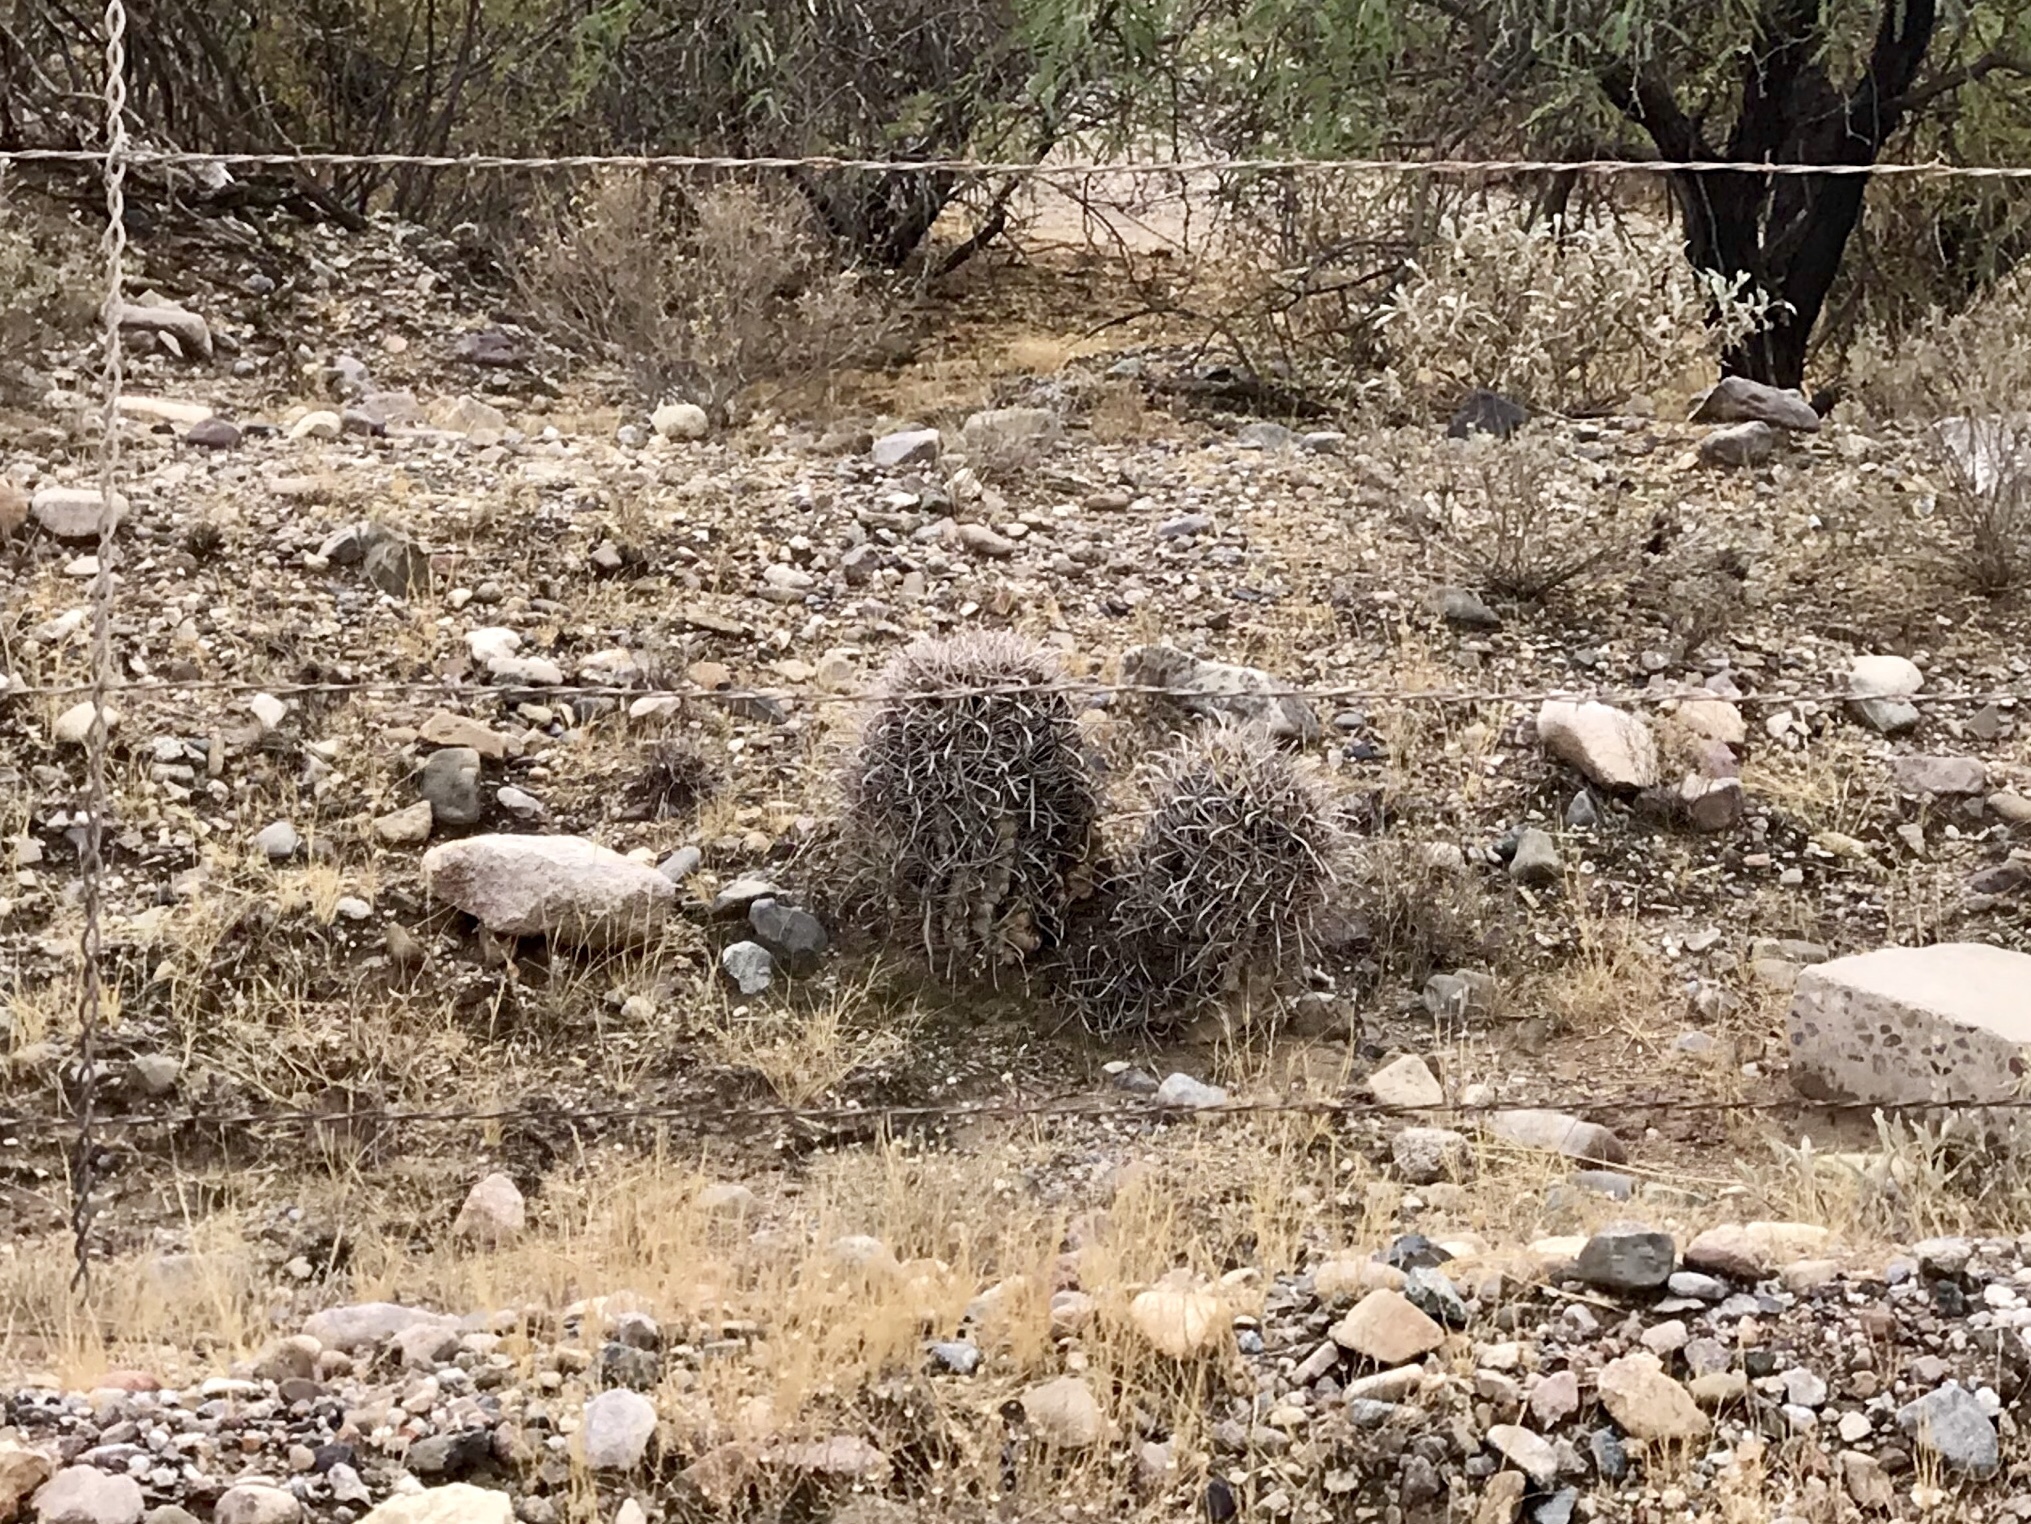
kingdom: Plantae
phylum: Tracheophyta
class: Magnoliopsida
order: Caryophyllales
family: Cactaceae
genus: Ferocactus
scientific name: Ferocactus wislizeni
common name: Candy barrel cactus
